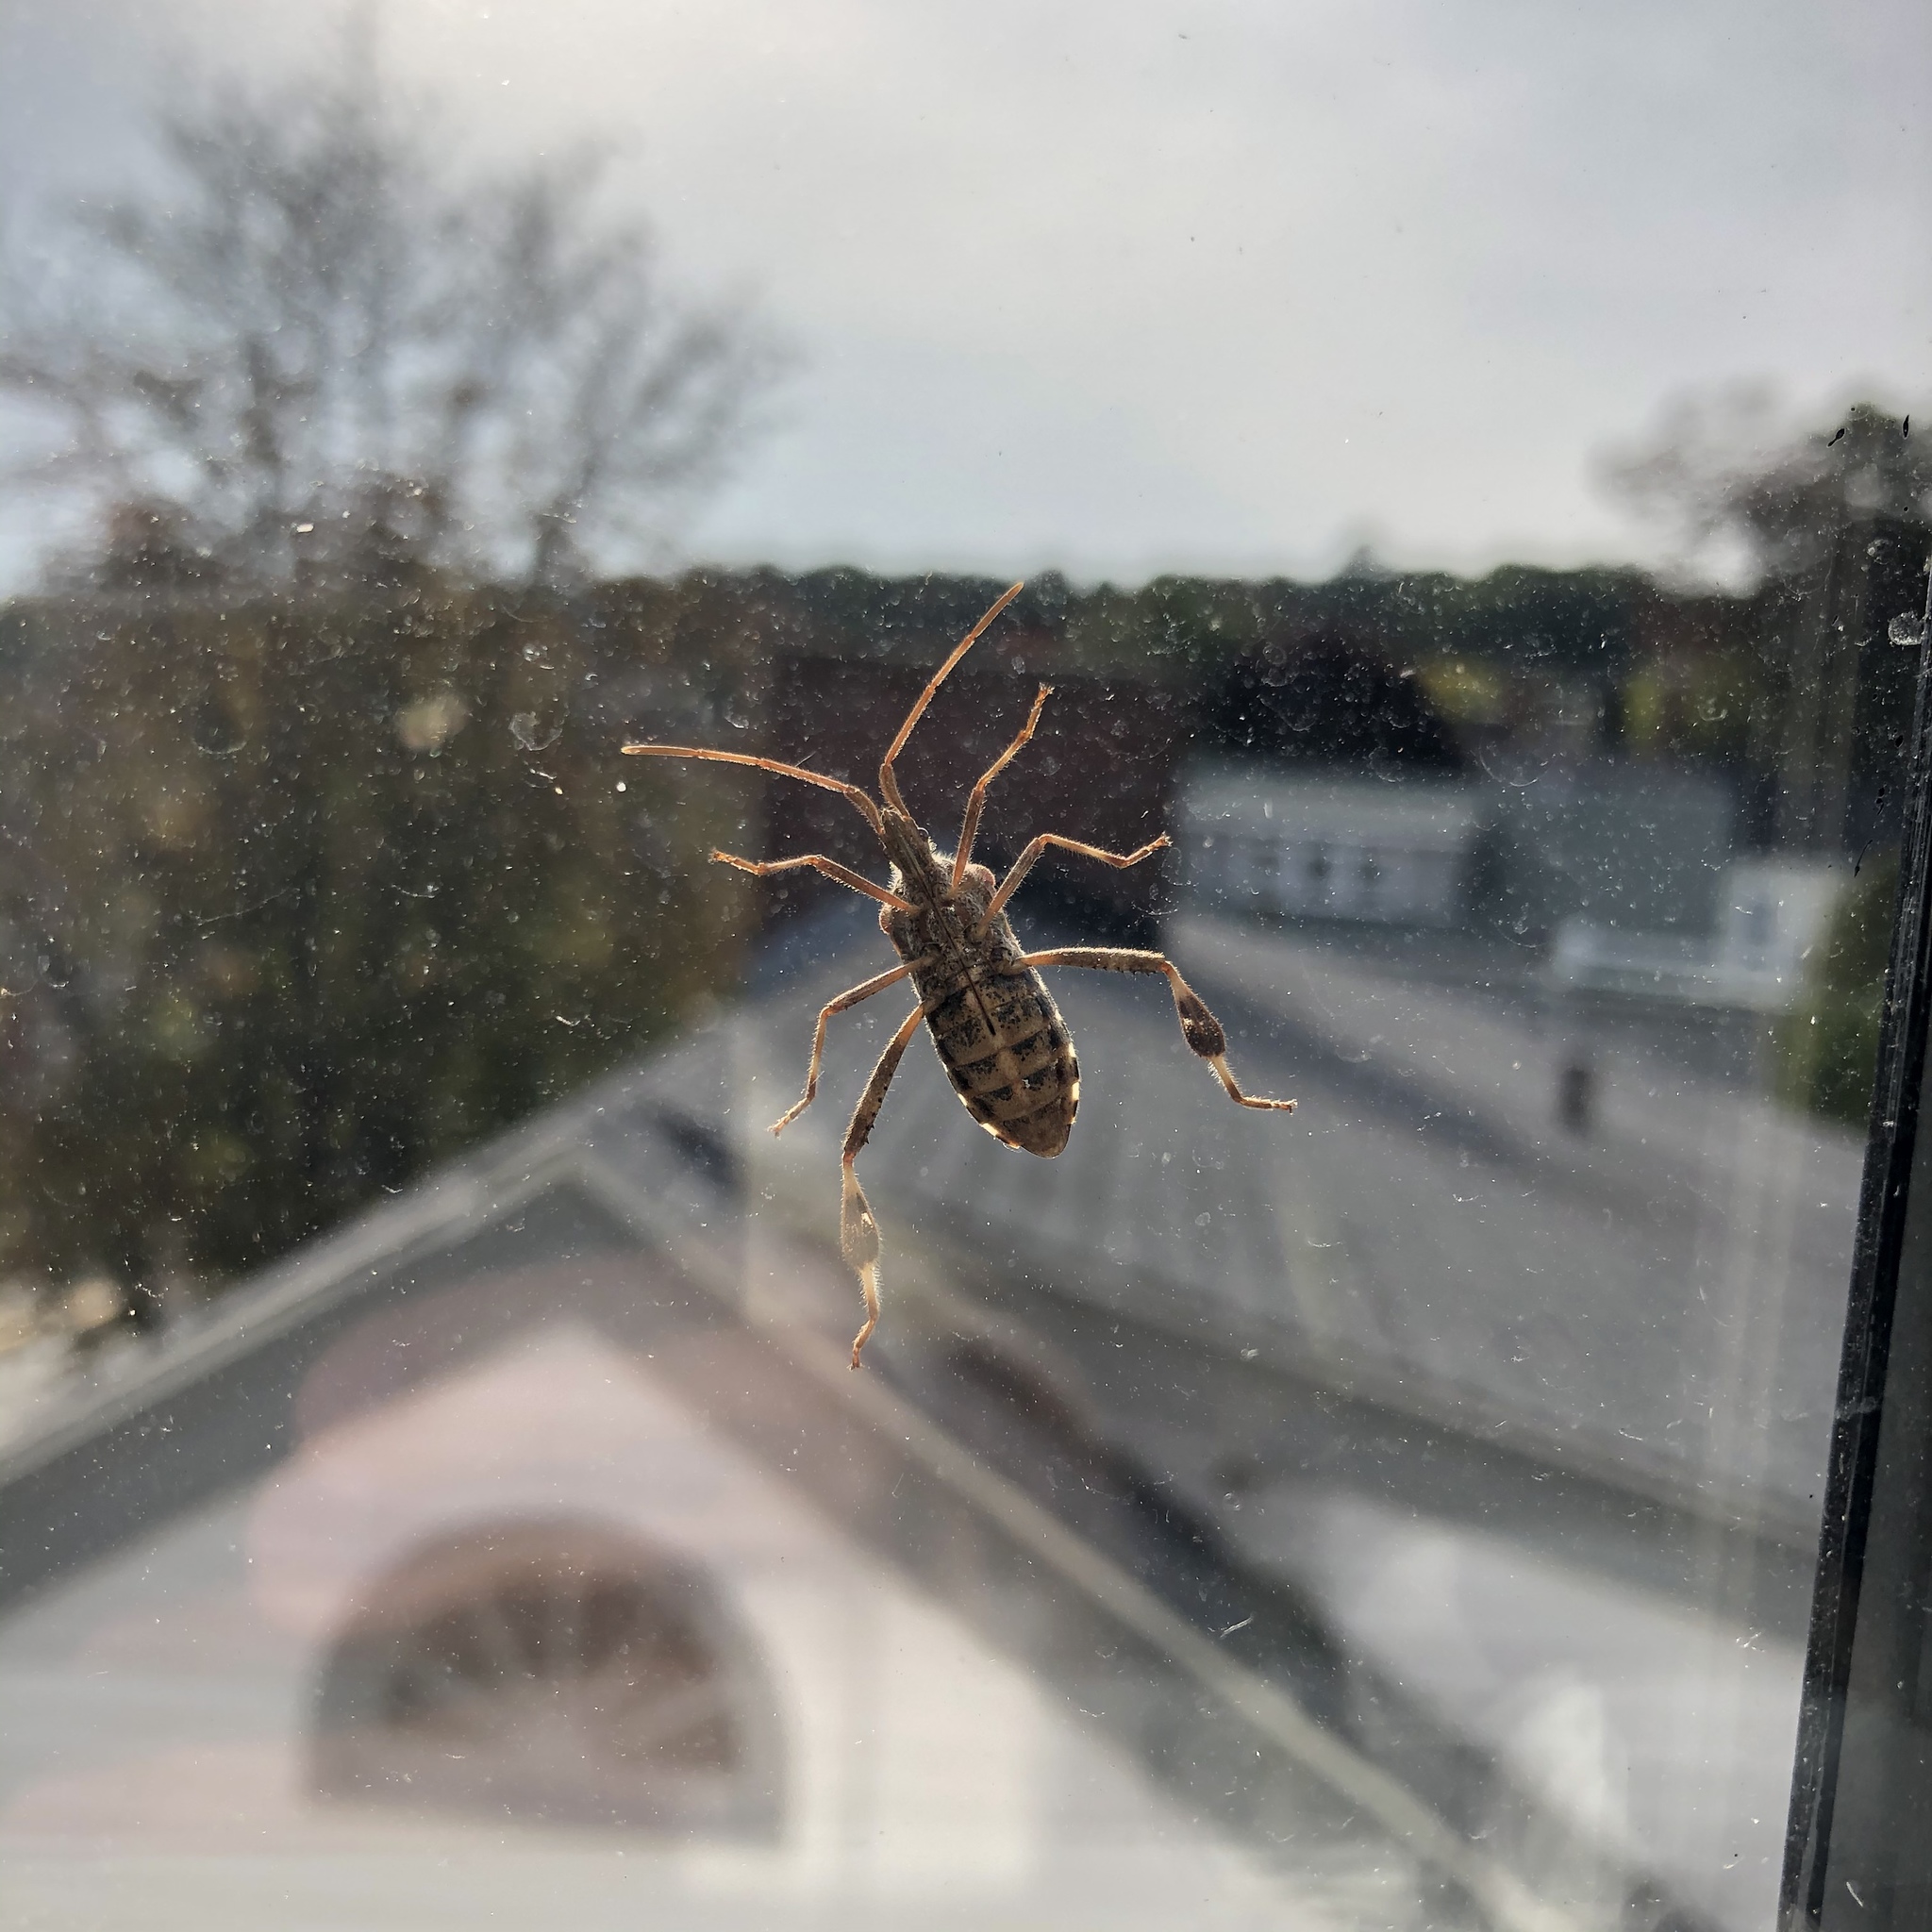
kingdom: Animalia
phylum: Arthropoda
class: Insecta
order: Hemiptera
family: Coreidae
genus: Leptoglossus
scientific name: Leptoglossus occidentalis
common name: Western conifer-seed bug
